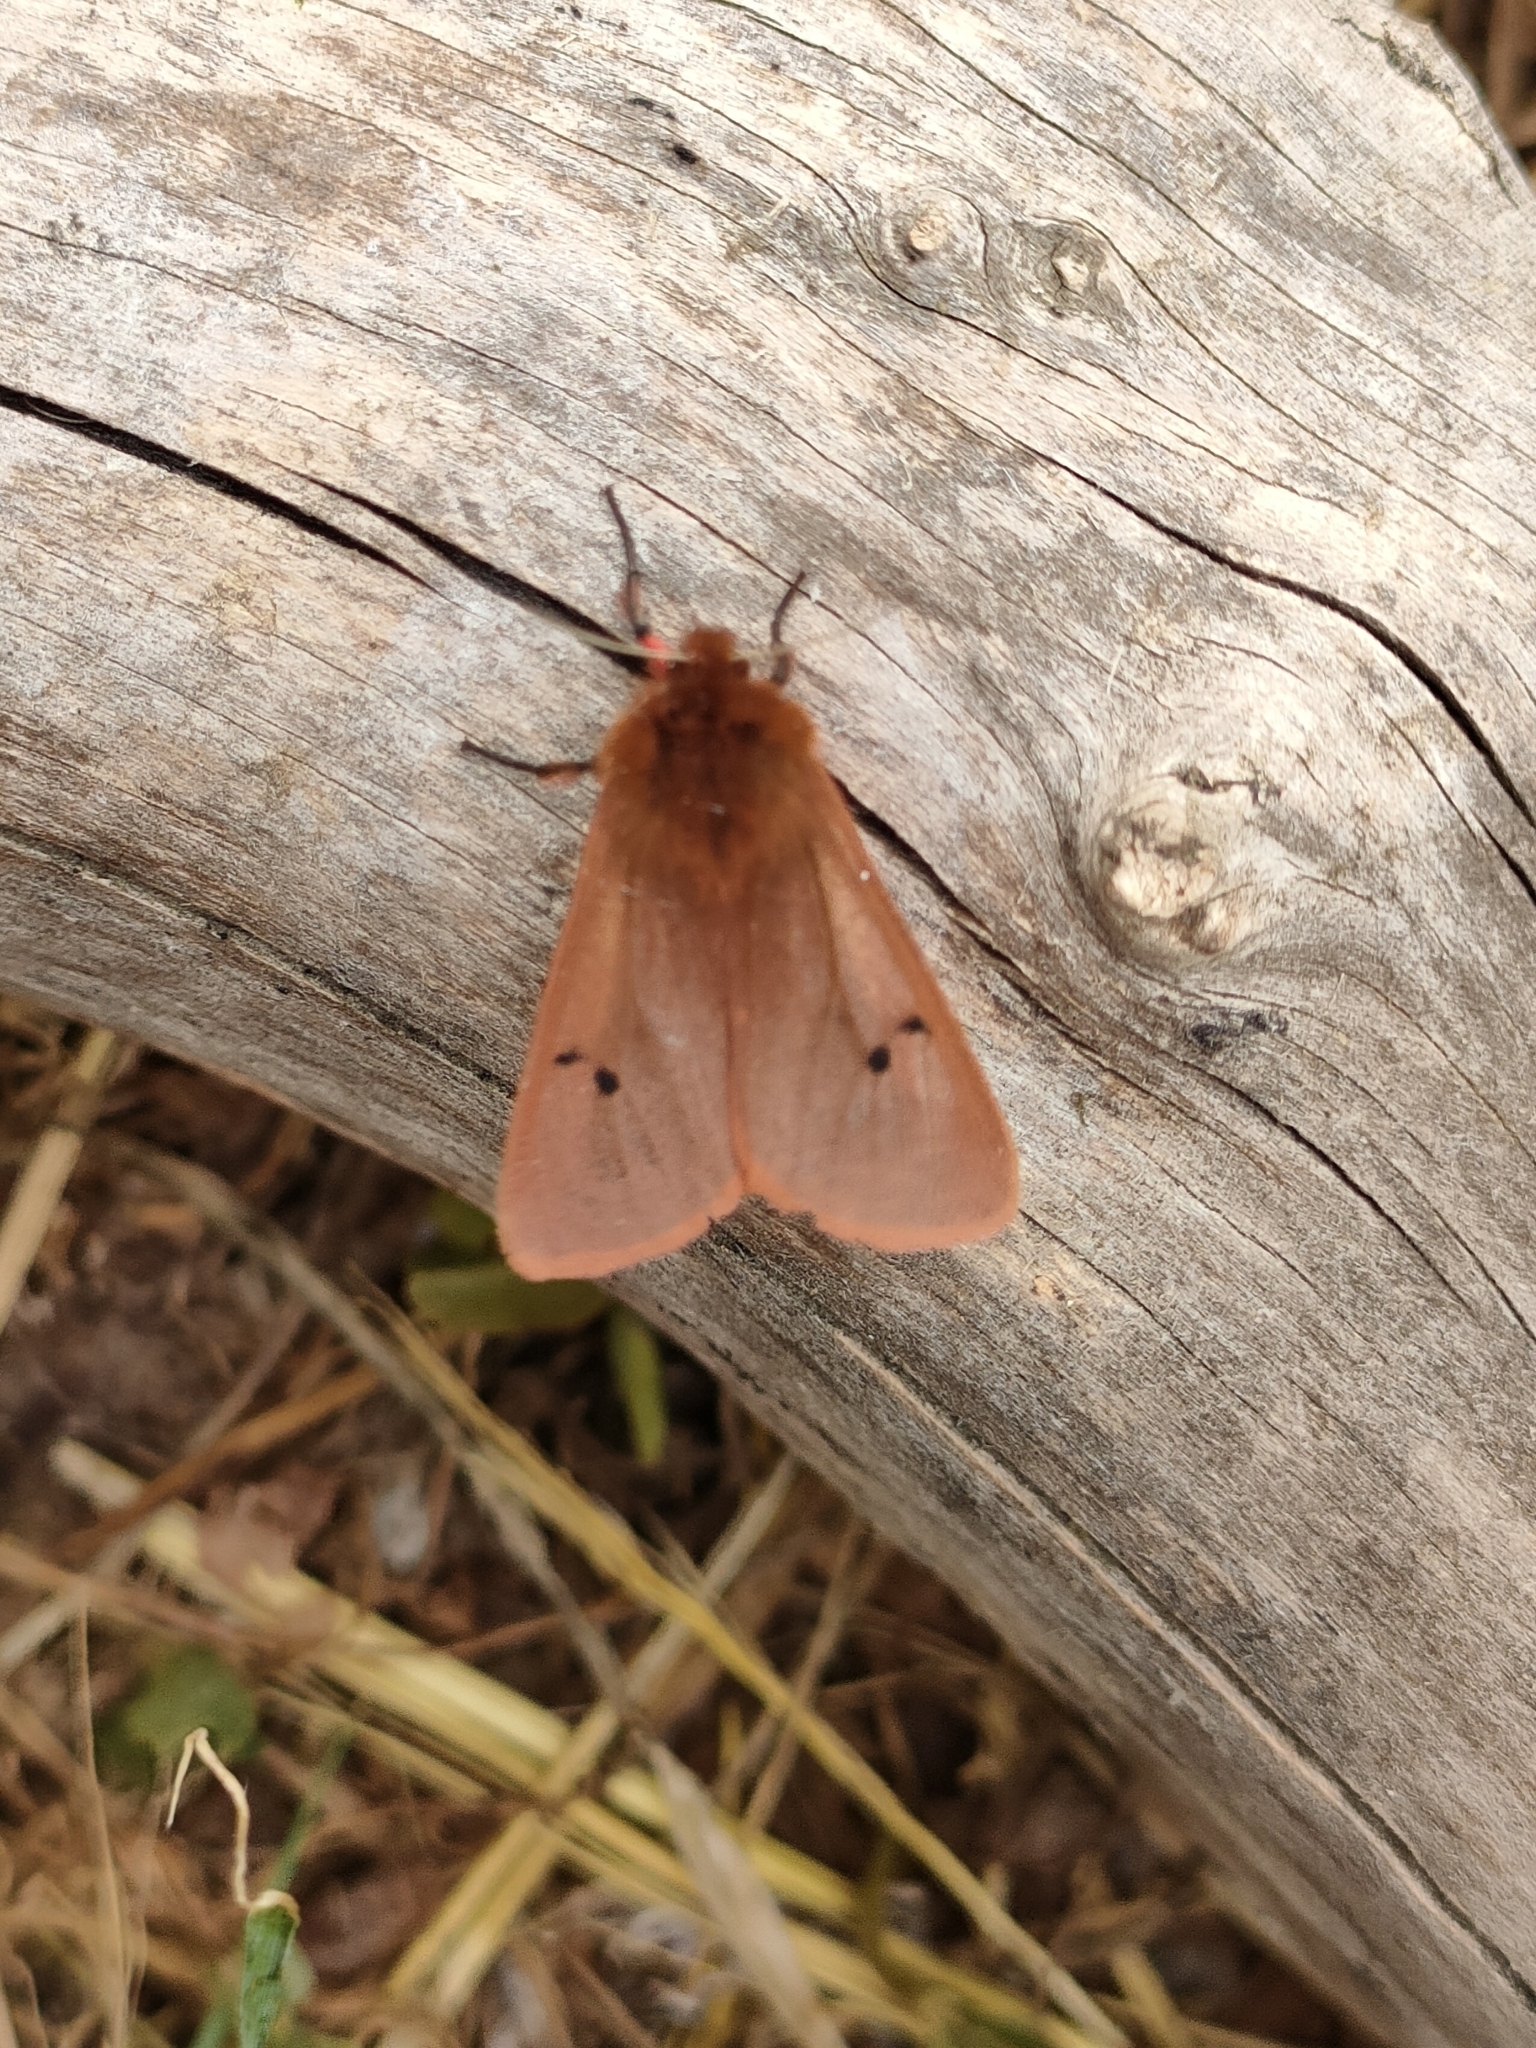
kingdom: Animalia
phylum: Arthropoda
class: Insecta
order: Lepidoptera
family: Erebidae
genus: Phragmatobia
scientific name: Phragmatobia fuliginosa
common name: Ruby tiger
